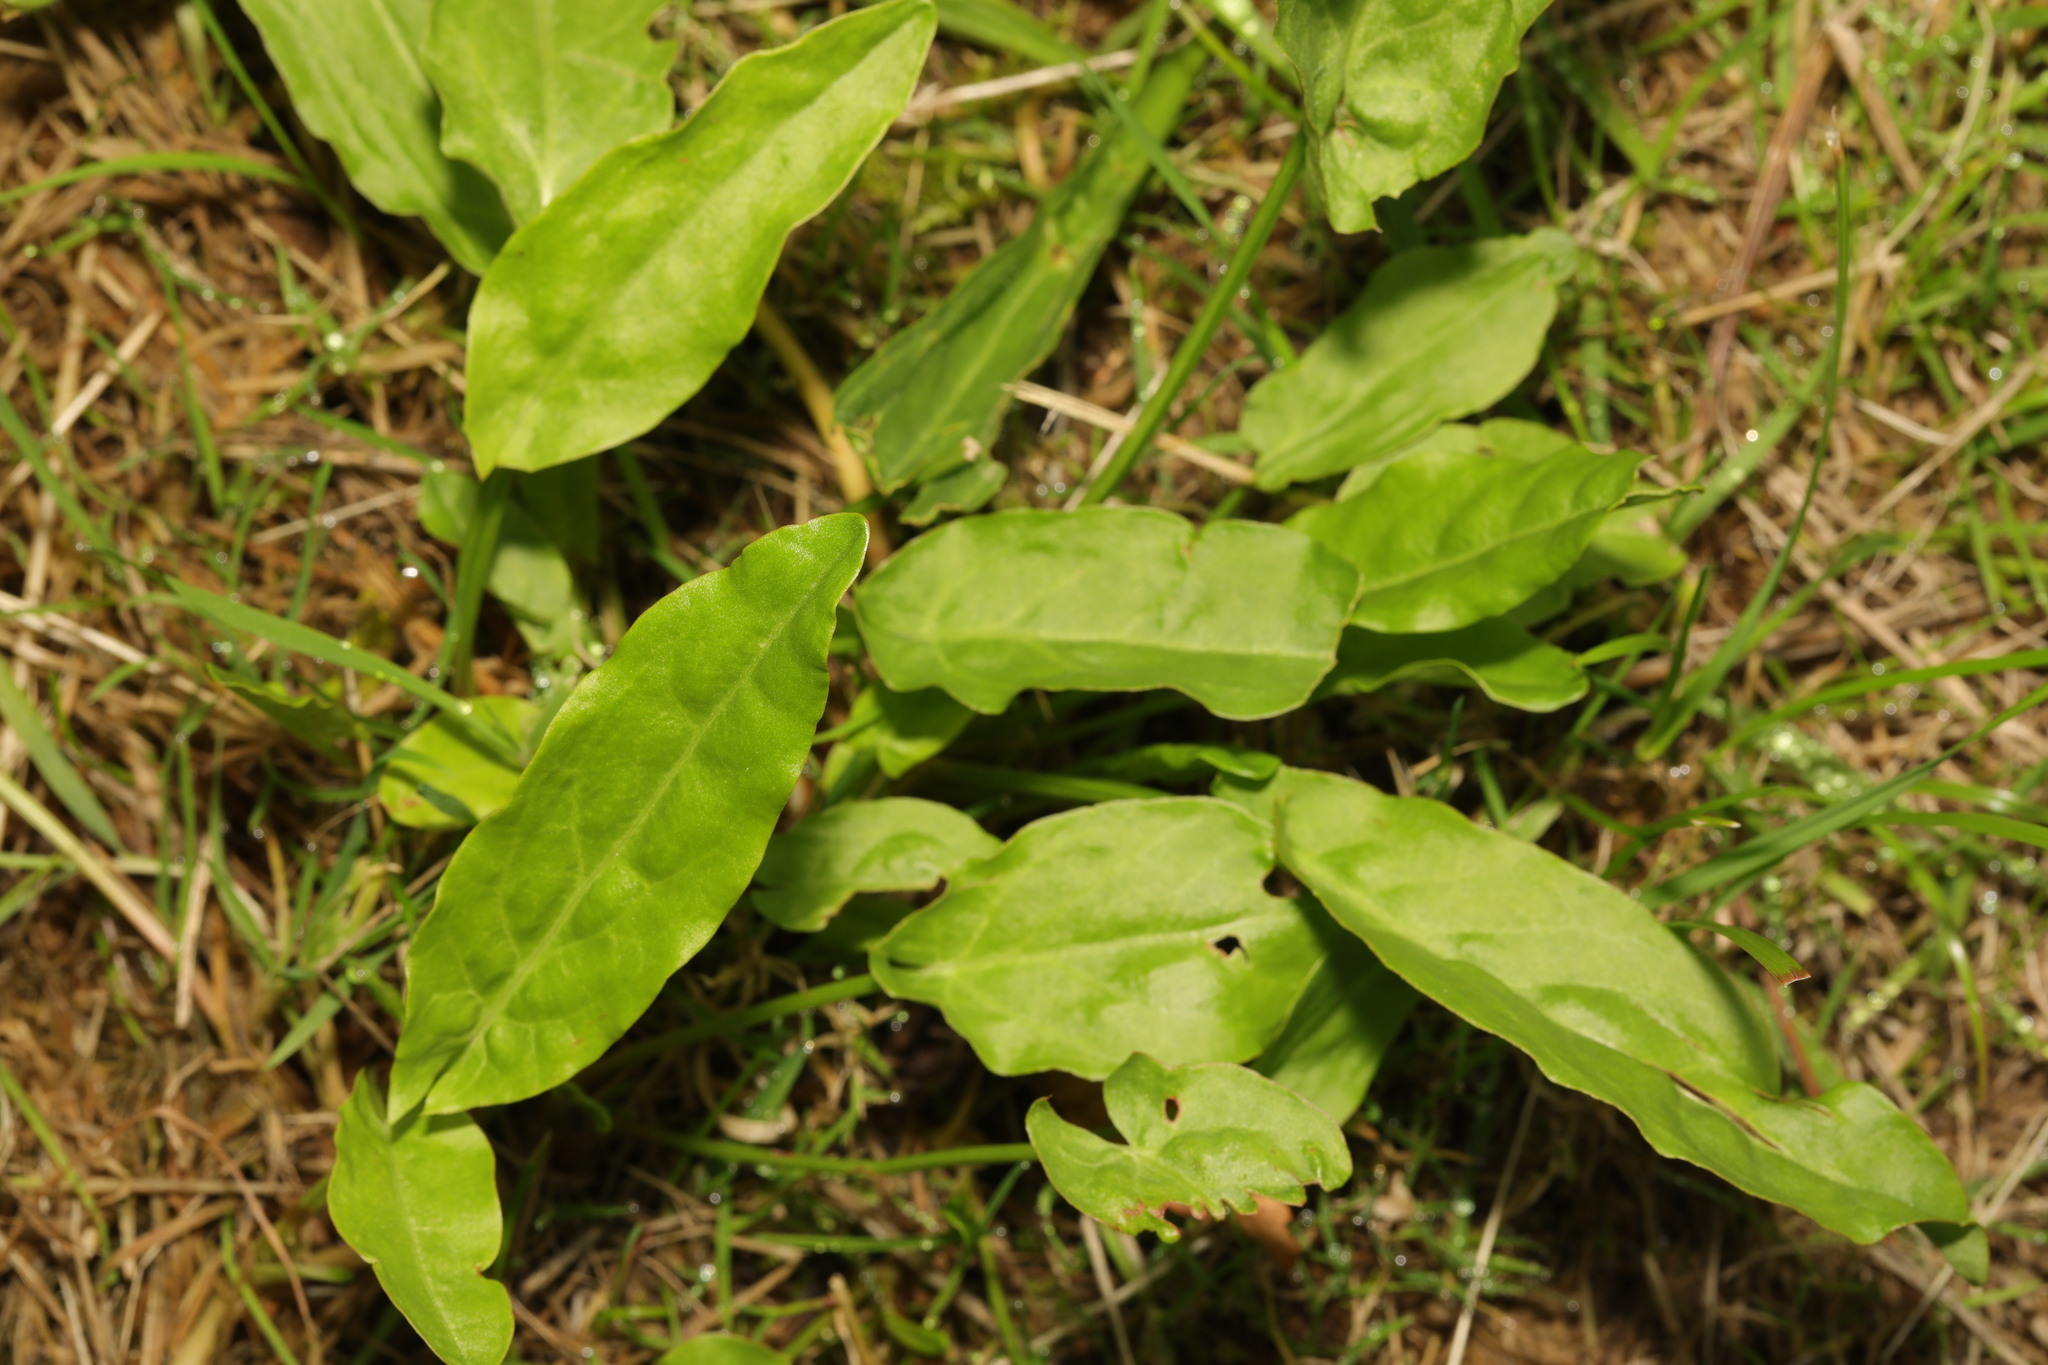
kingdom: Plantae
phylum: Tracheophyta
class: Magnoliopsida
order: Caryophyllales
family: Polygonaceae
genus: Rumex
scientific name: Rumex acetosa
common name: Garden sorrel
